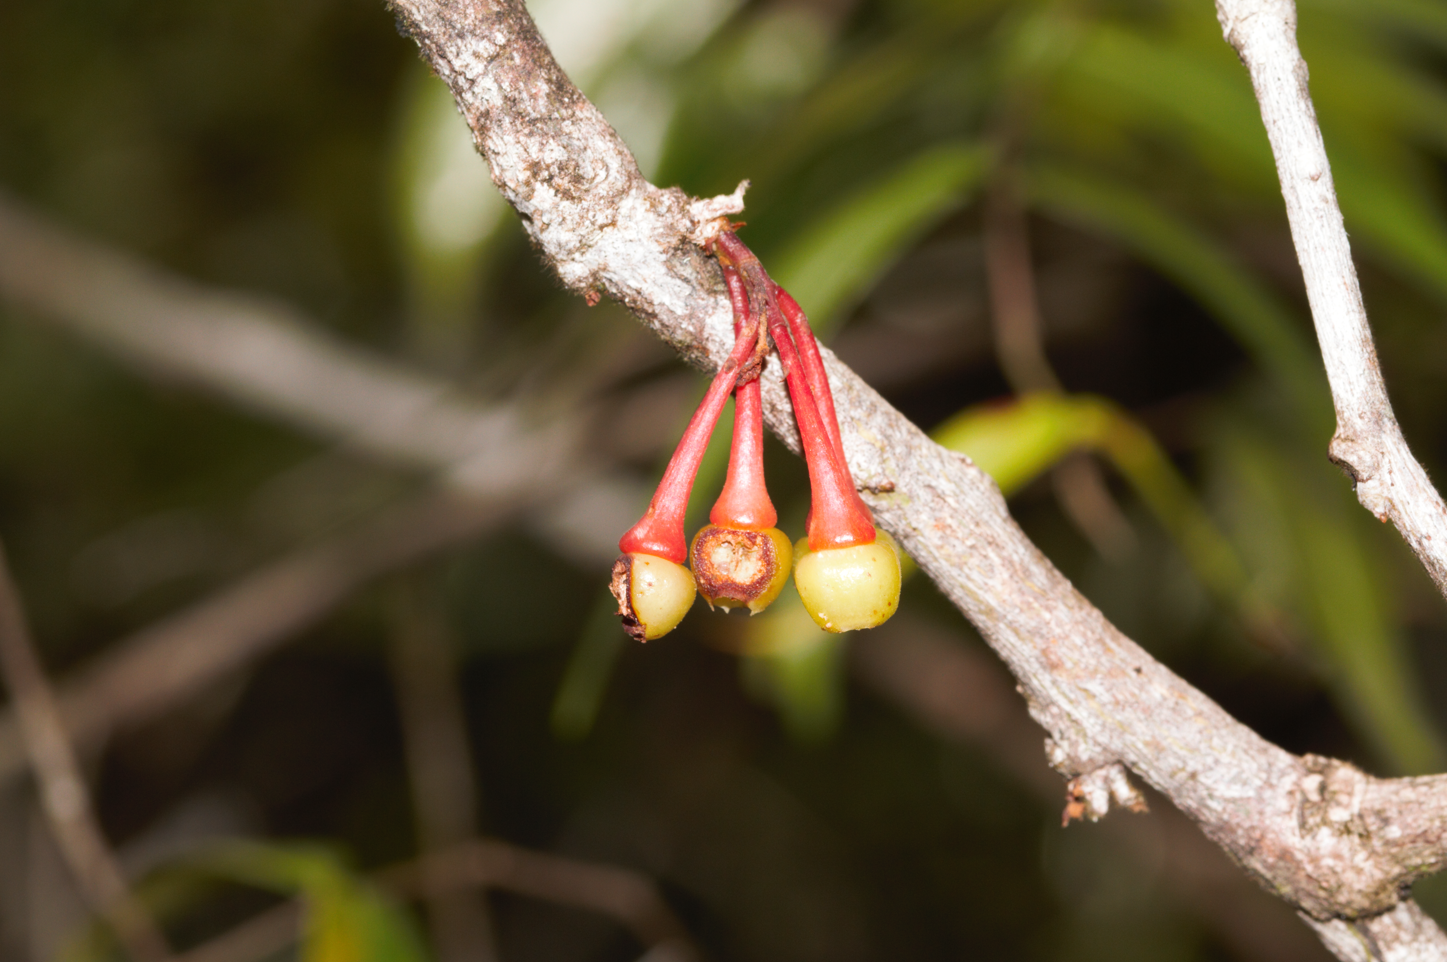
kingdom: Plantae
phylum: Tracheophyta
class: Magnoliopsida
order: Ericales
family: Ericaceae
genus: Satyria
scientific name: Satyria cerander
